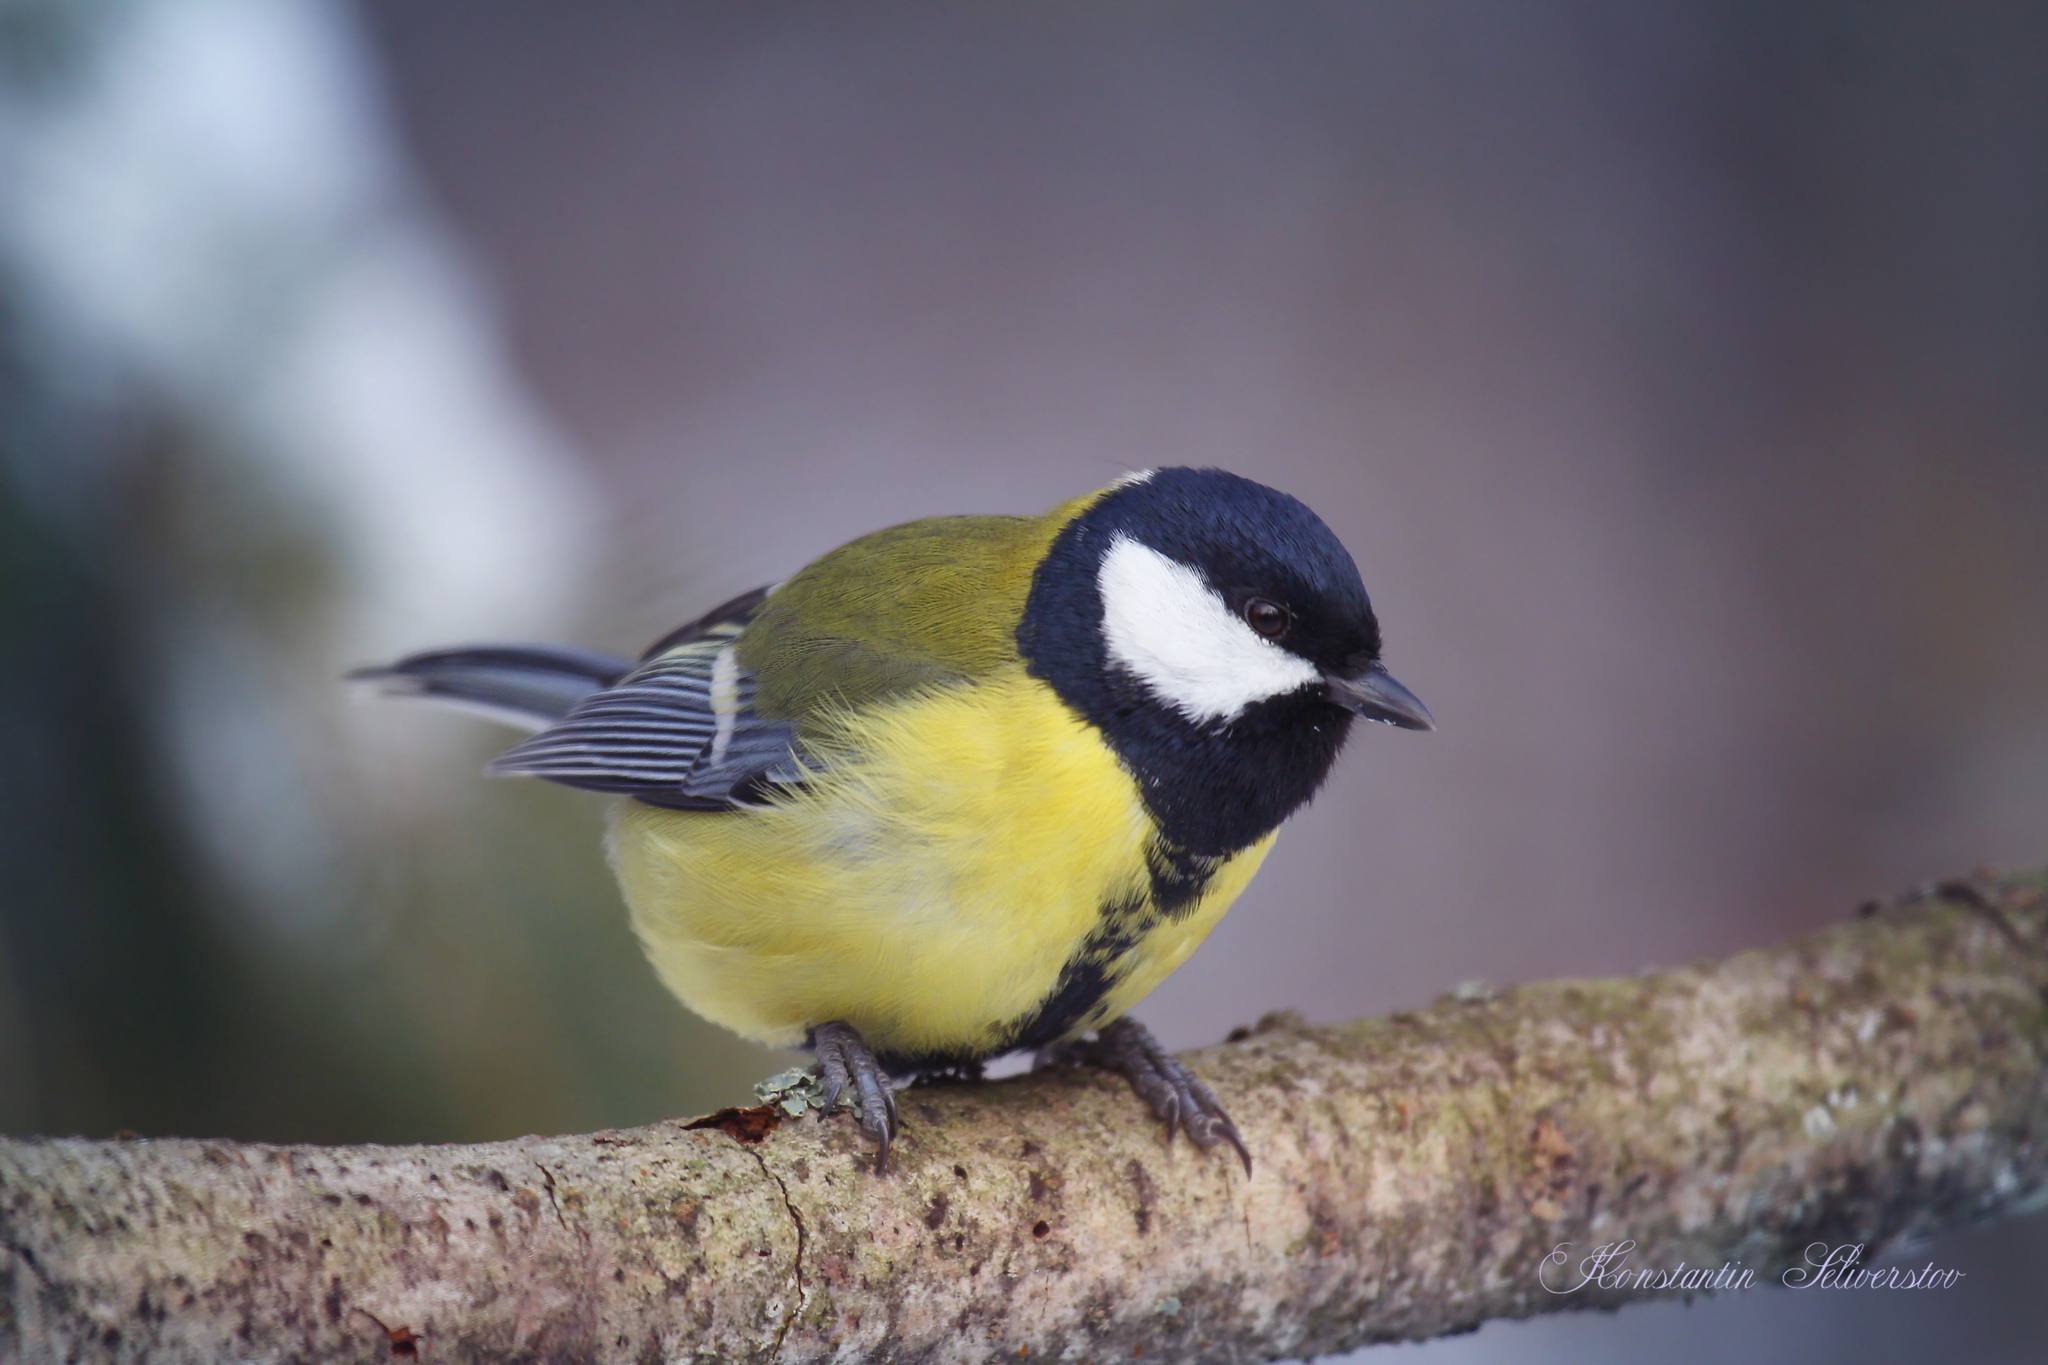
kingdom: Animalia
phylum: Chordata
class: Aves
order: Passeriformes
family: Paridae
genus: Parus
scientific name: Parus major
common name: Great tit
